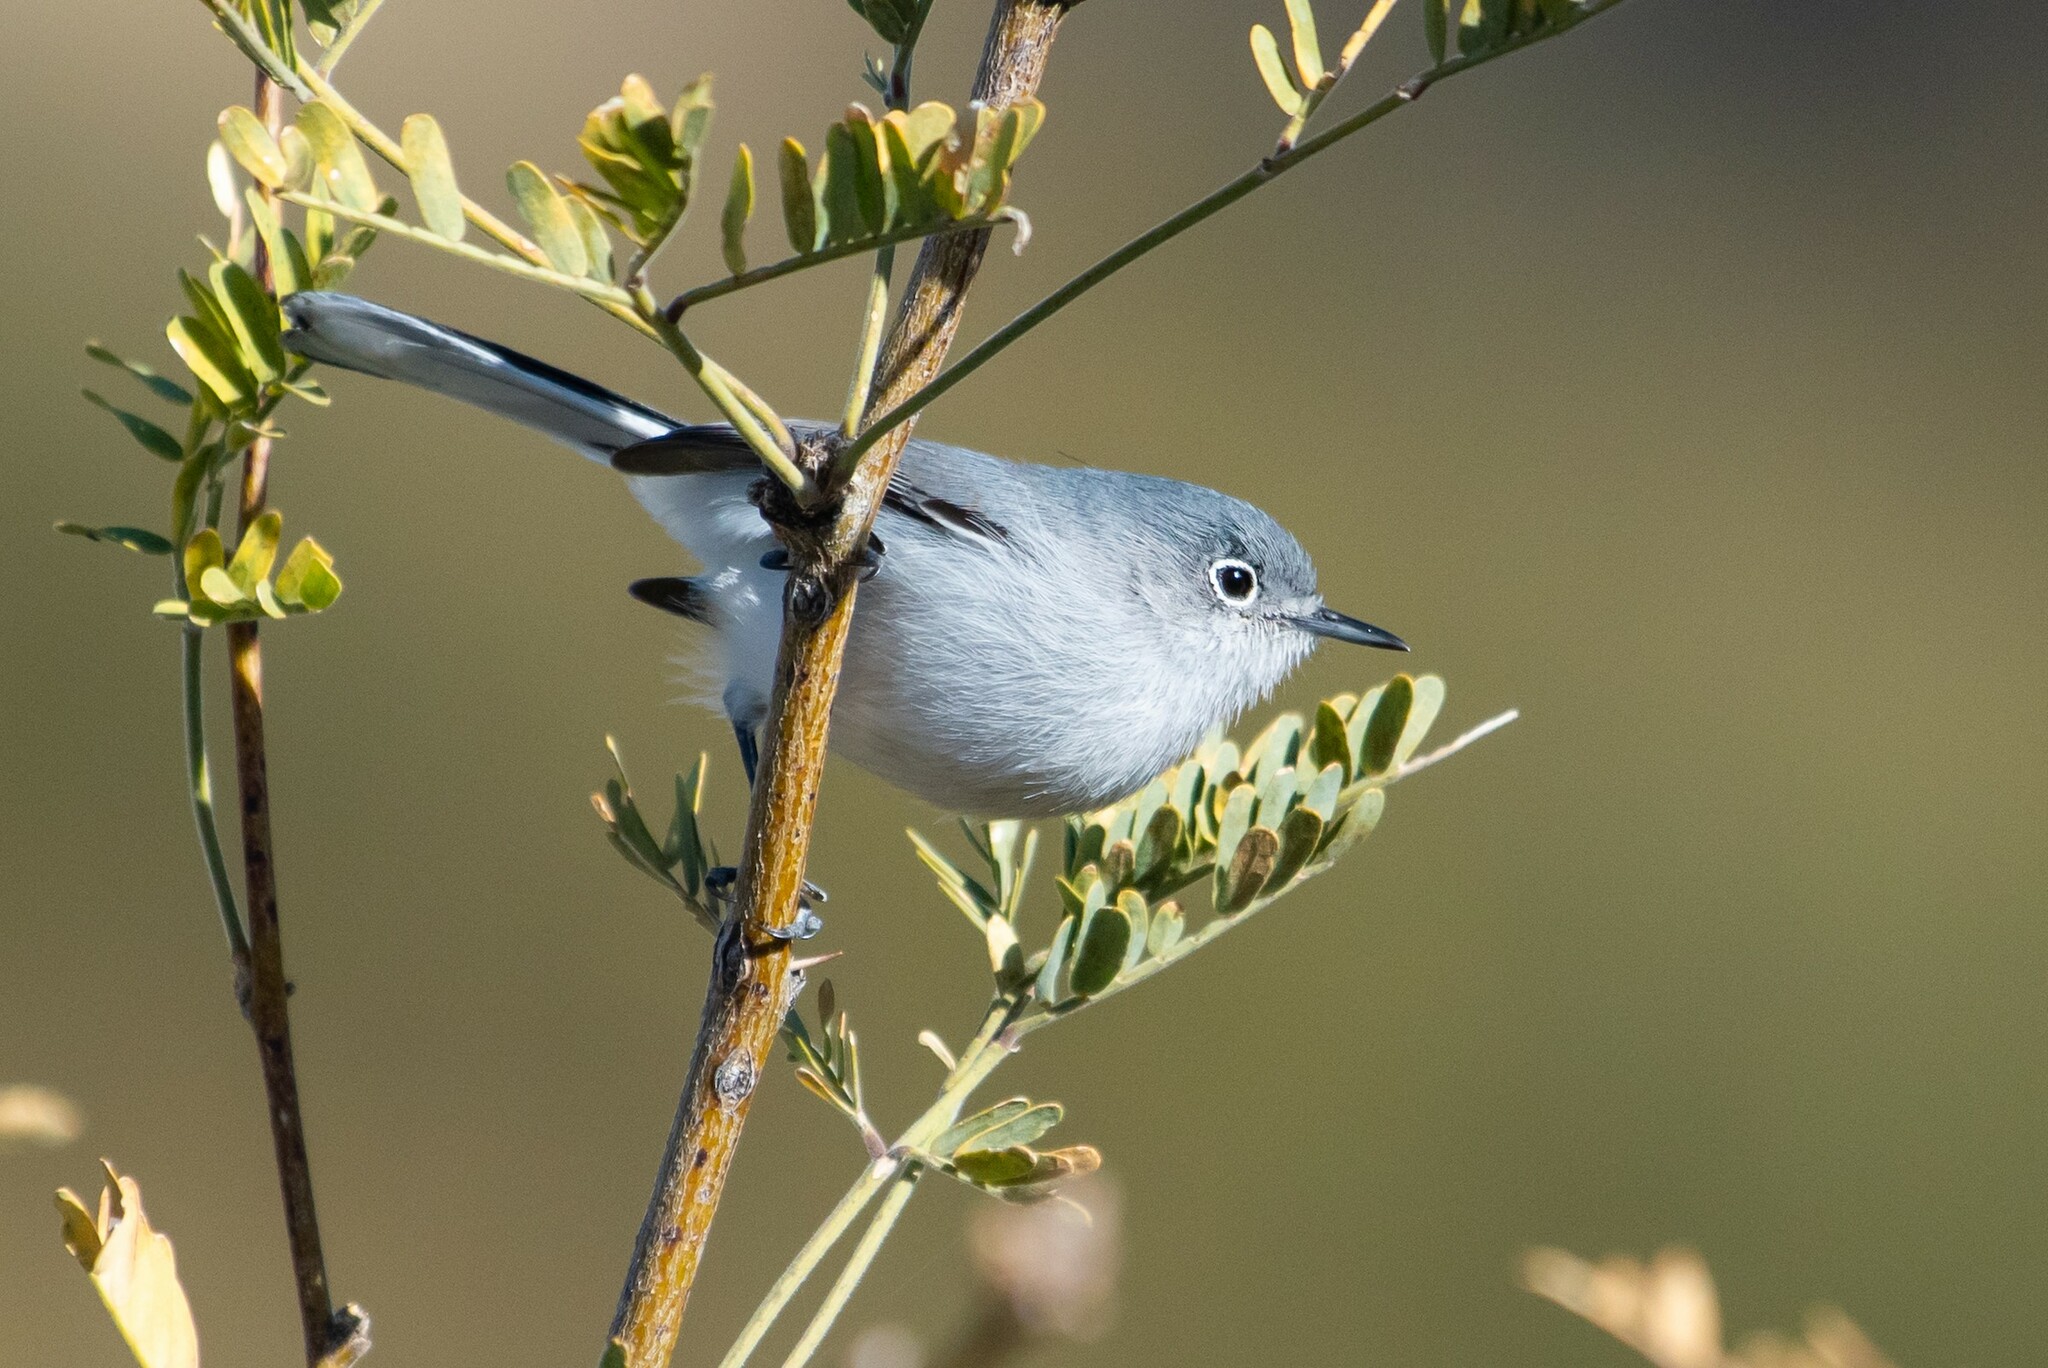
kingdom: Animalia
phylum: Chordata
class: Aves
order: Passeriformes
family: Polioptilidae
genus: Polioptila
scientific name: Polioptila nigriceps
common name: Black-capped gnatcatcher
